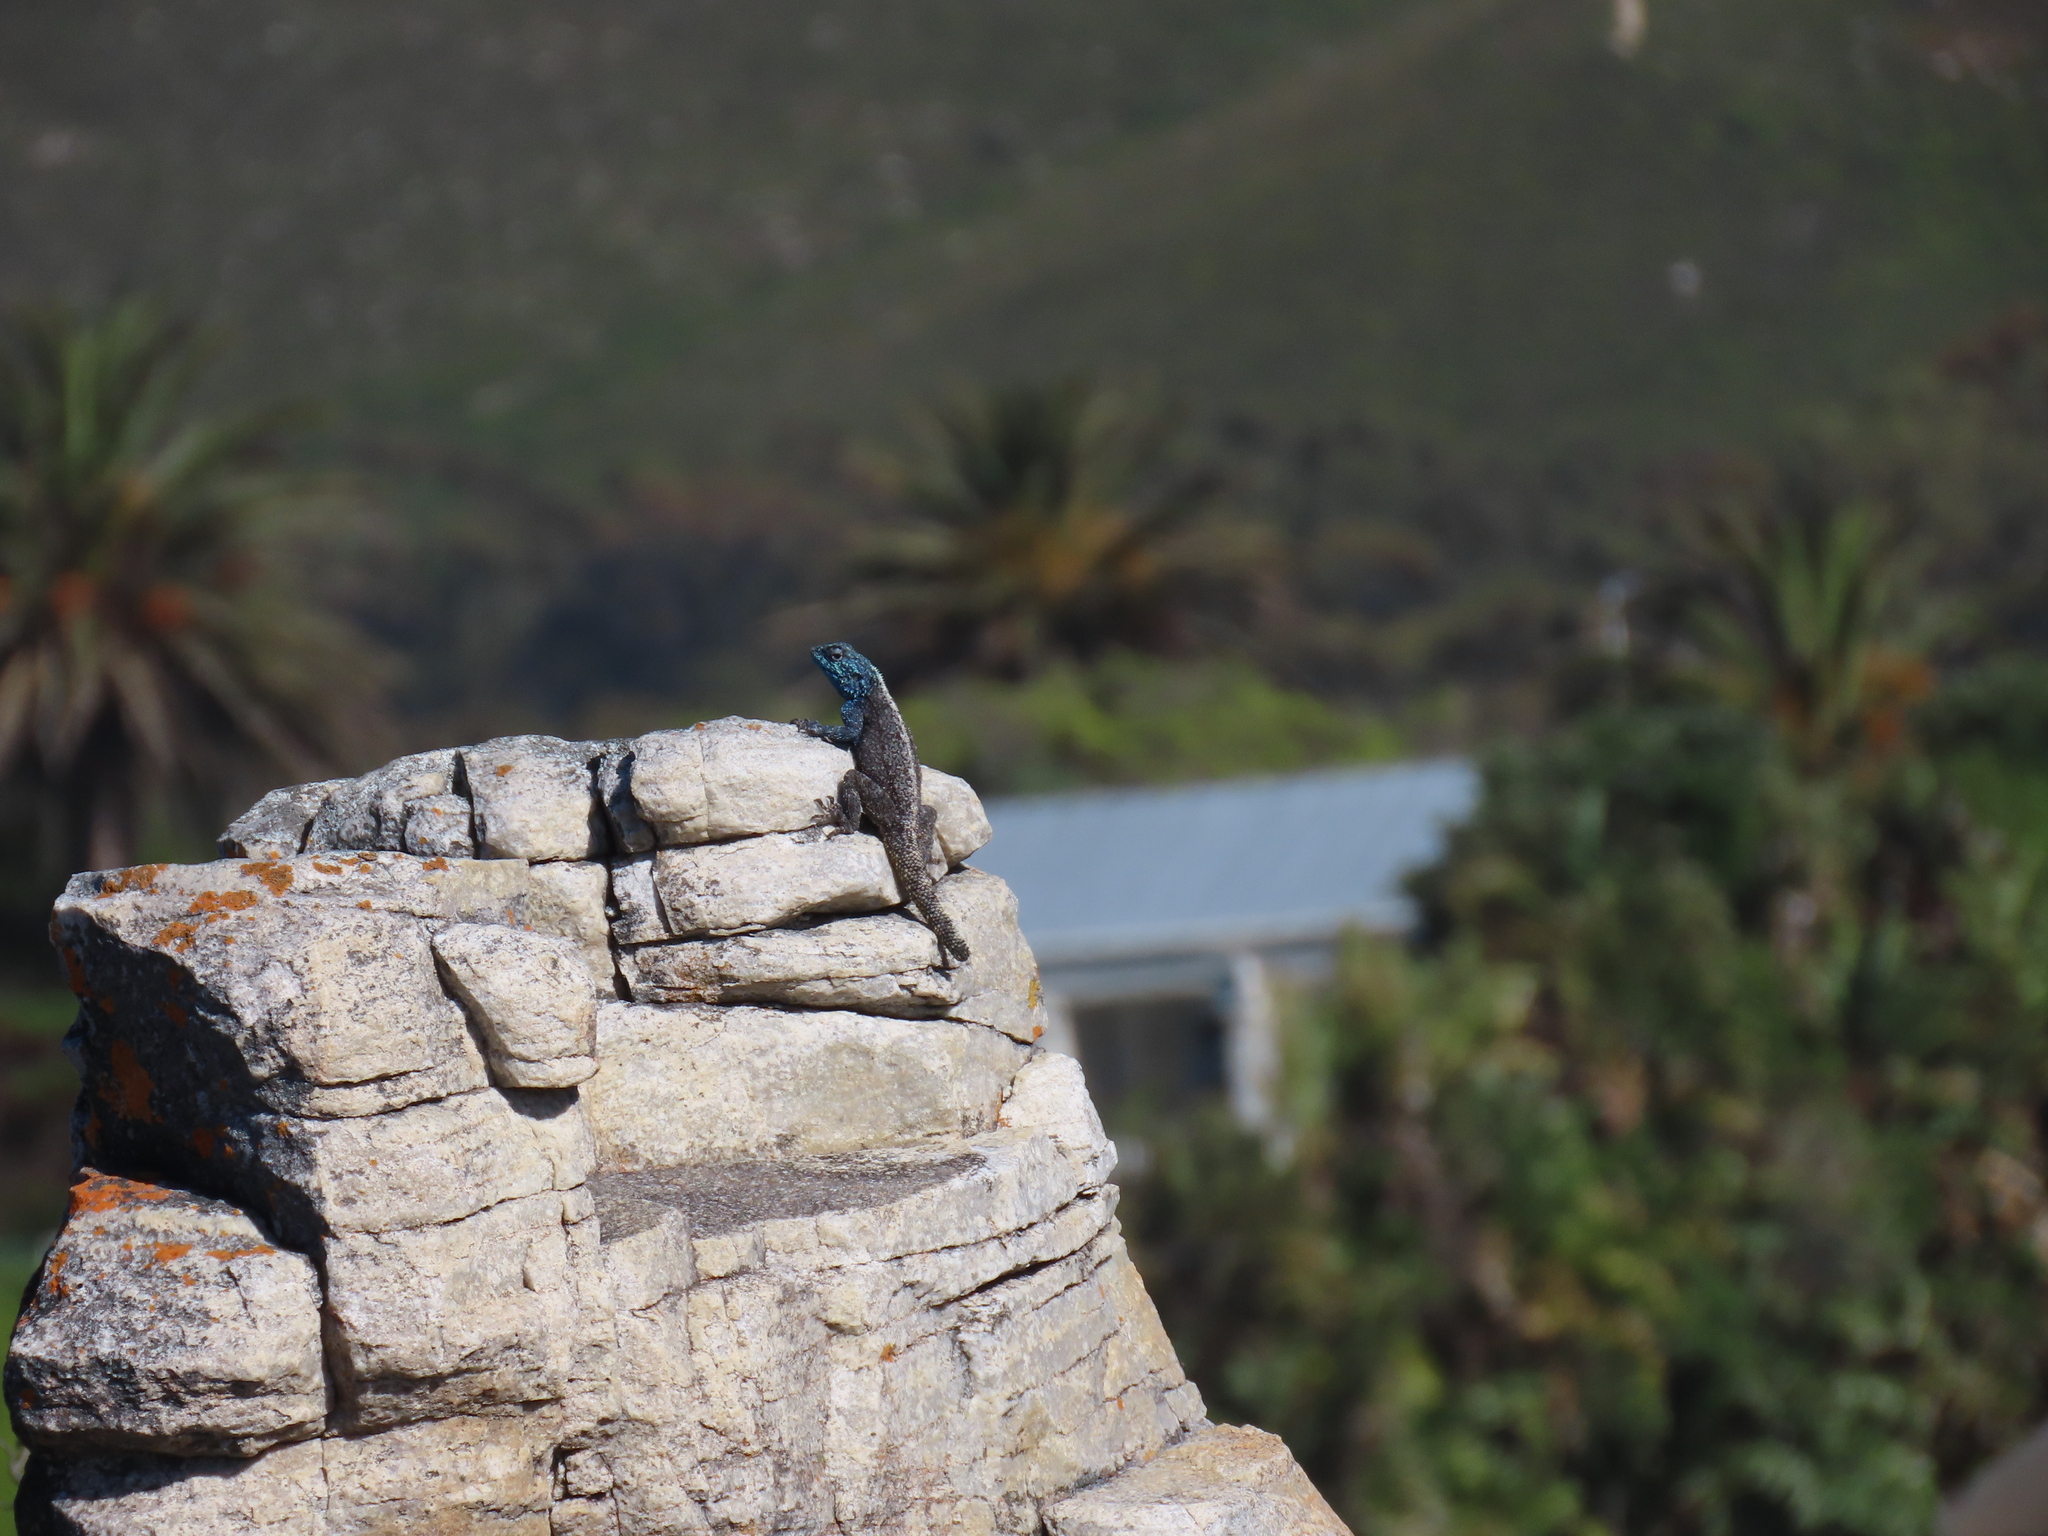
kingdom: Animalia
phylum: Chordata
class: Squamata
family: Agamidae
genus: Agama
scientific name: Agama atra
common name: Southern african rock agama
